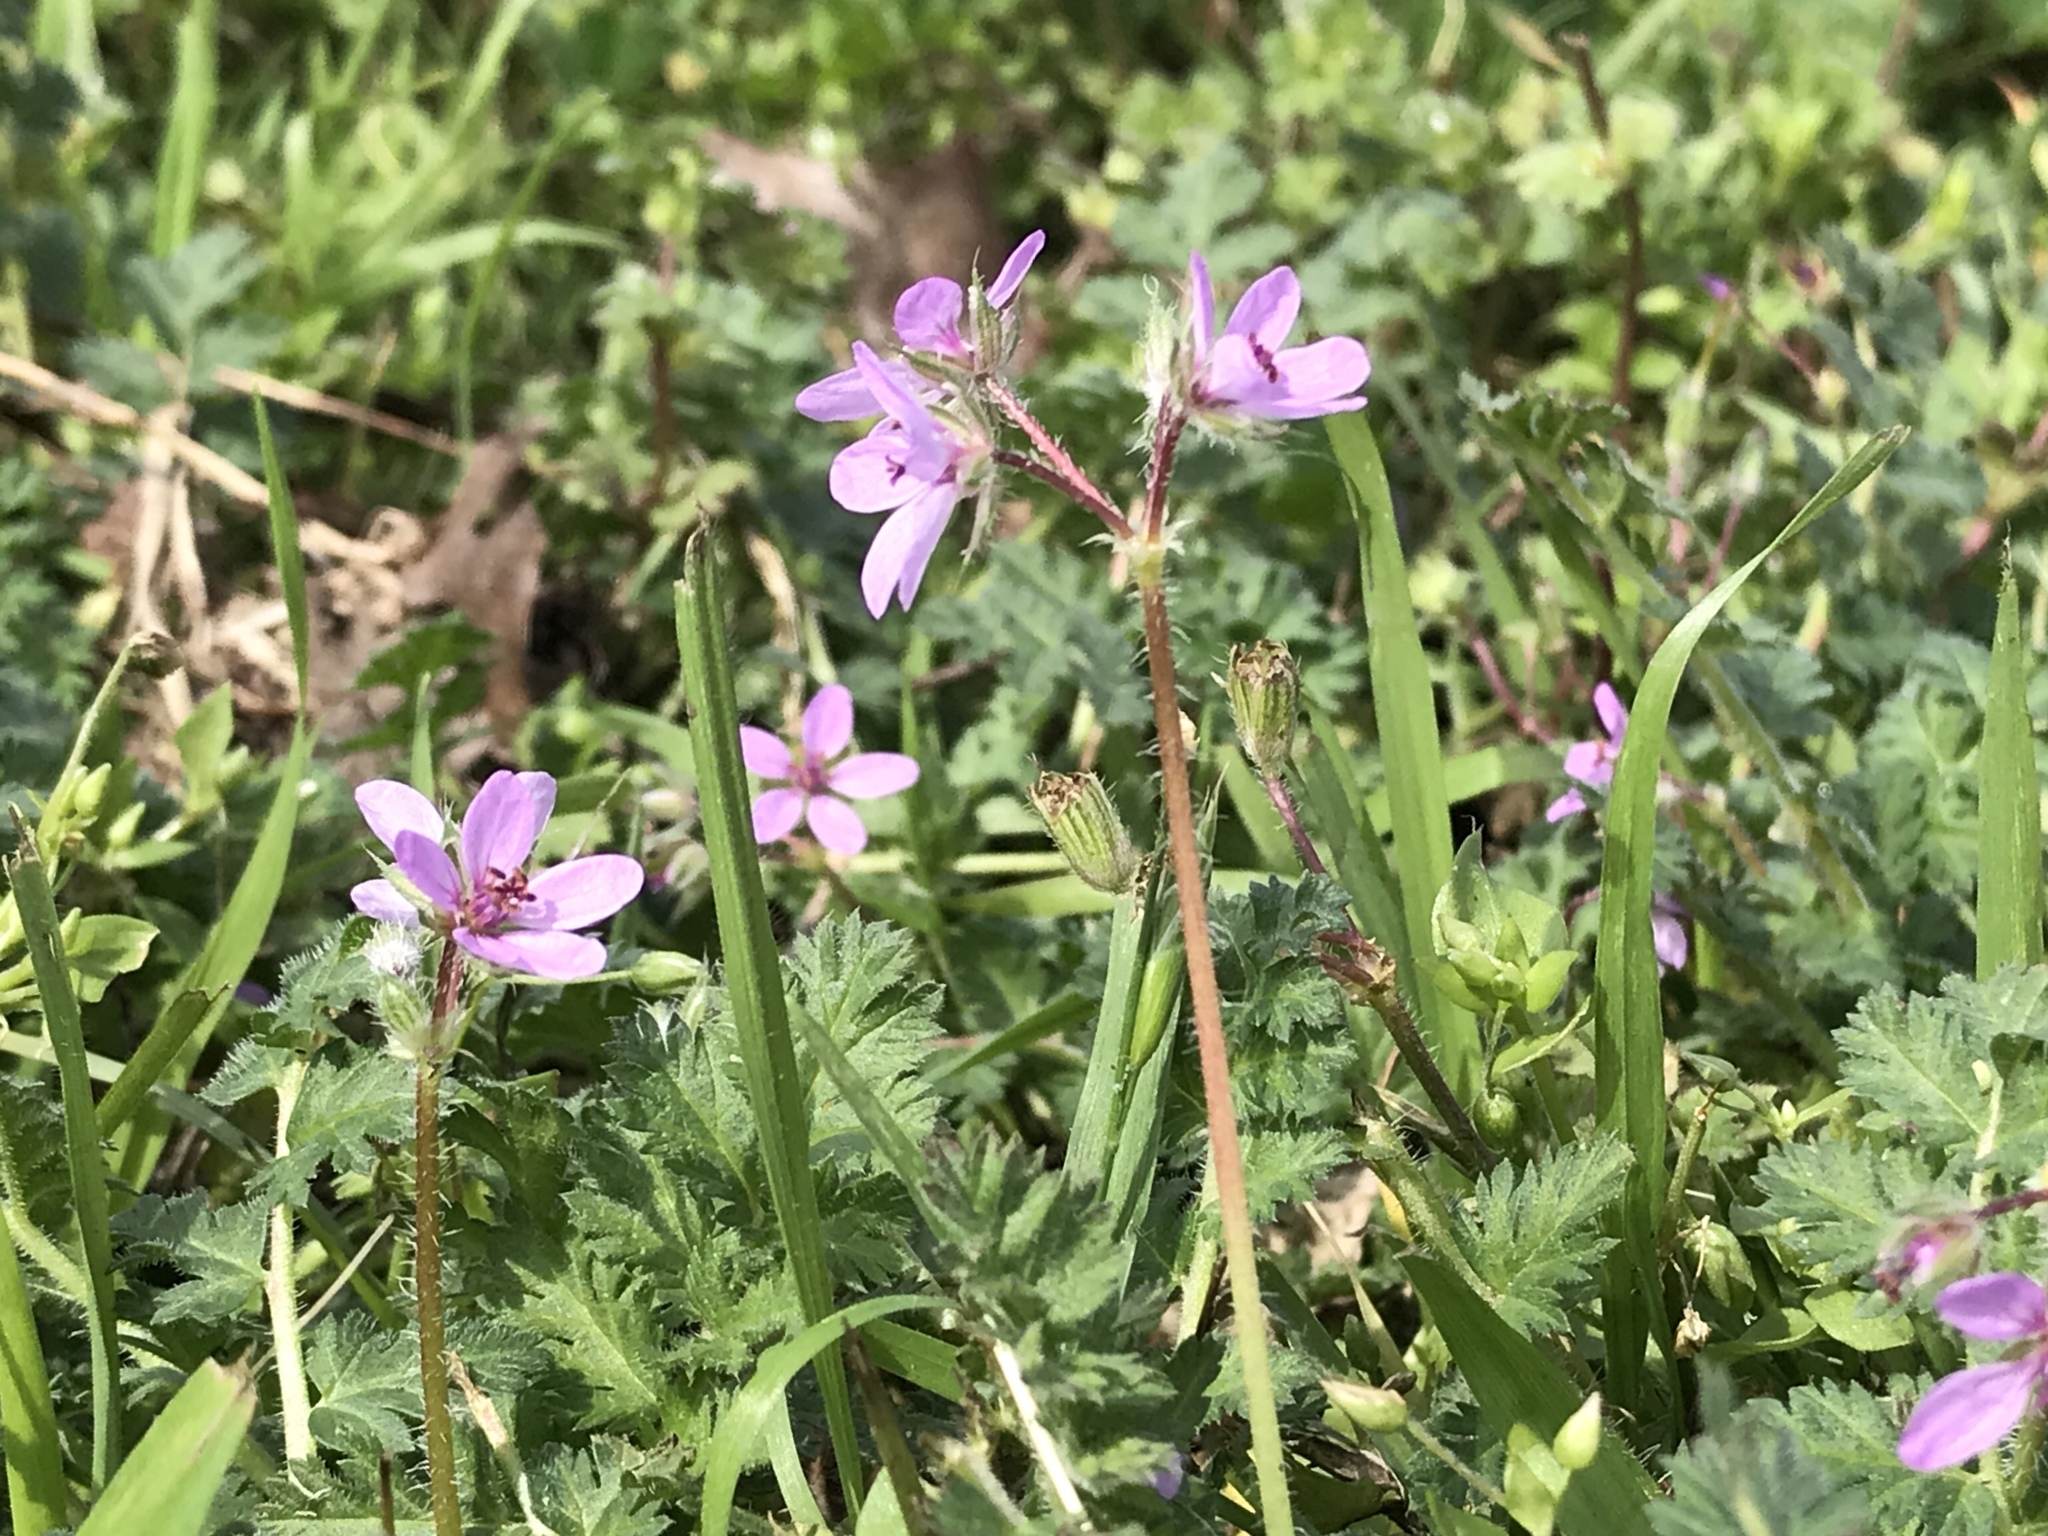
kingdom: Plantae
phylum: Tracheophyta
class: Magnoliopsida
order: Geraniales
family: Geraniaceae
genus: Erodium
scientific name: Erodium cicutarium
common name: Common stork's-bill
